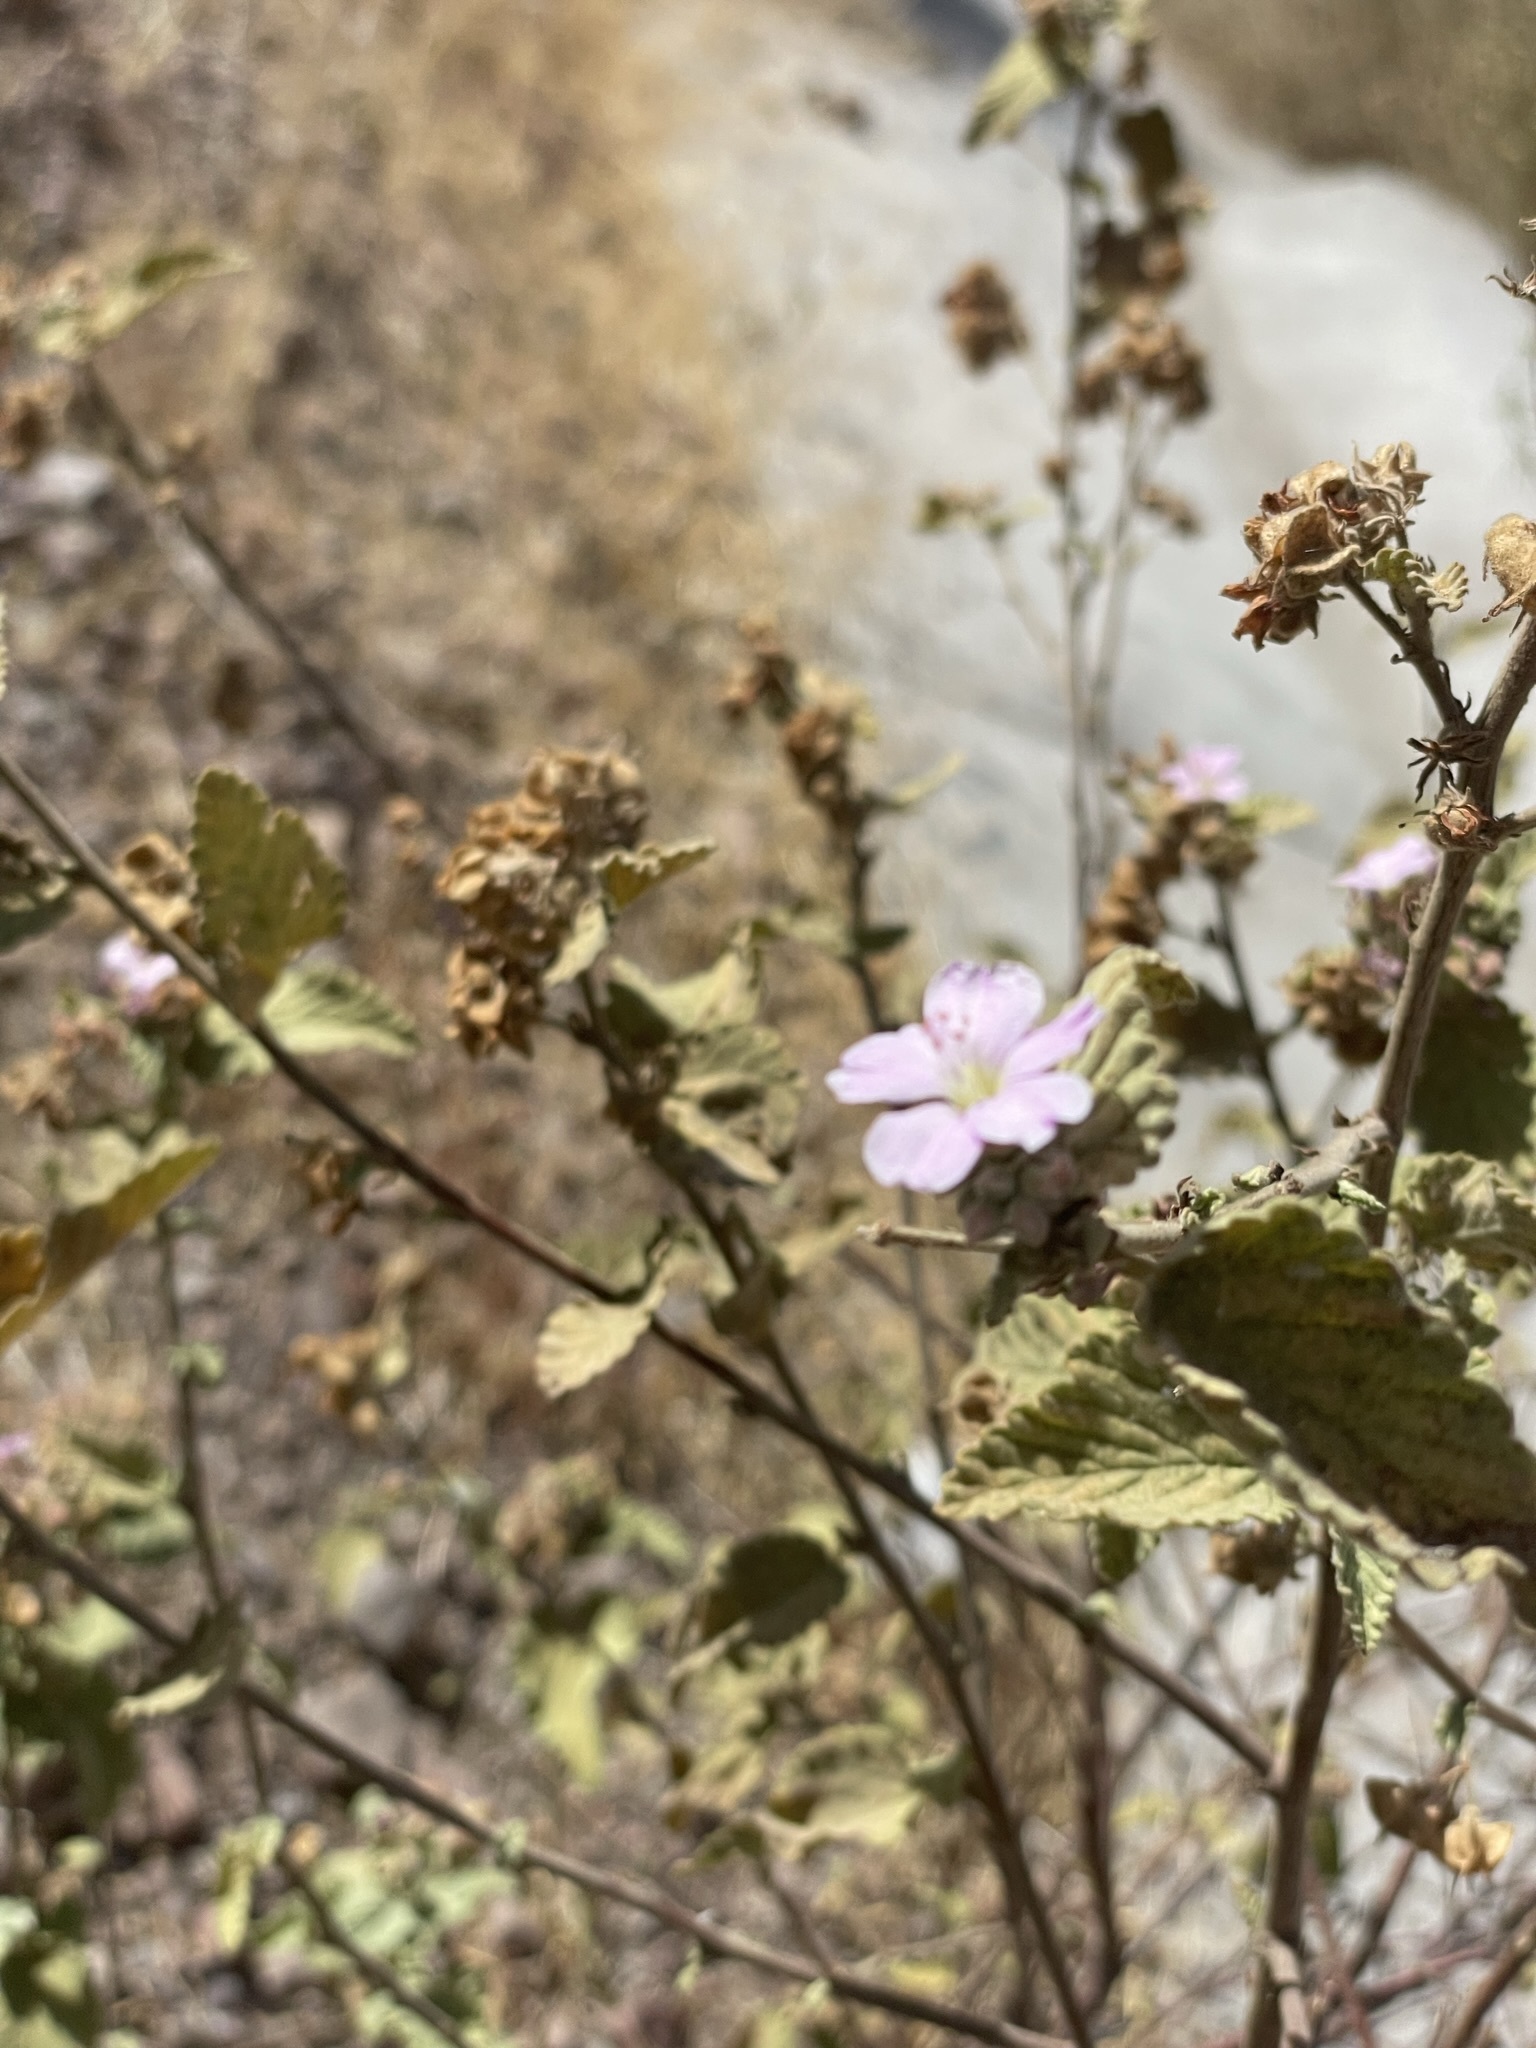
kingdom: Plantae
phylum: Tracheophyta
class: Magnoliopsida
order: Malvales
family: Malvaceae
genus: Melochia
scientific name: Melochia tomentosa
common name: Black torch
